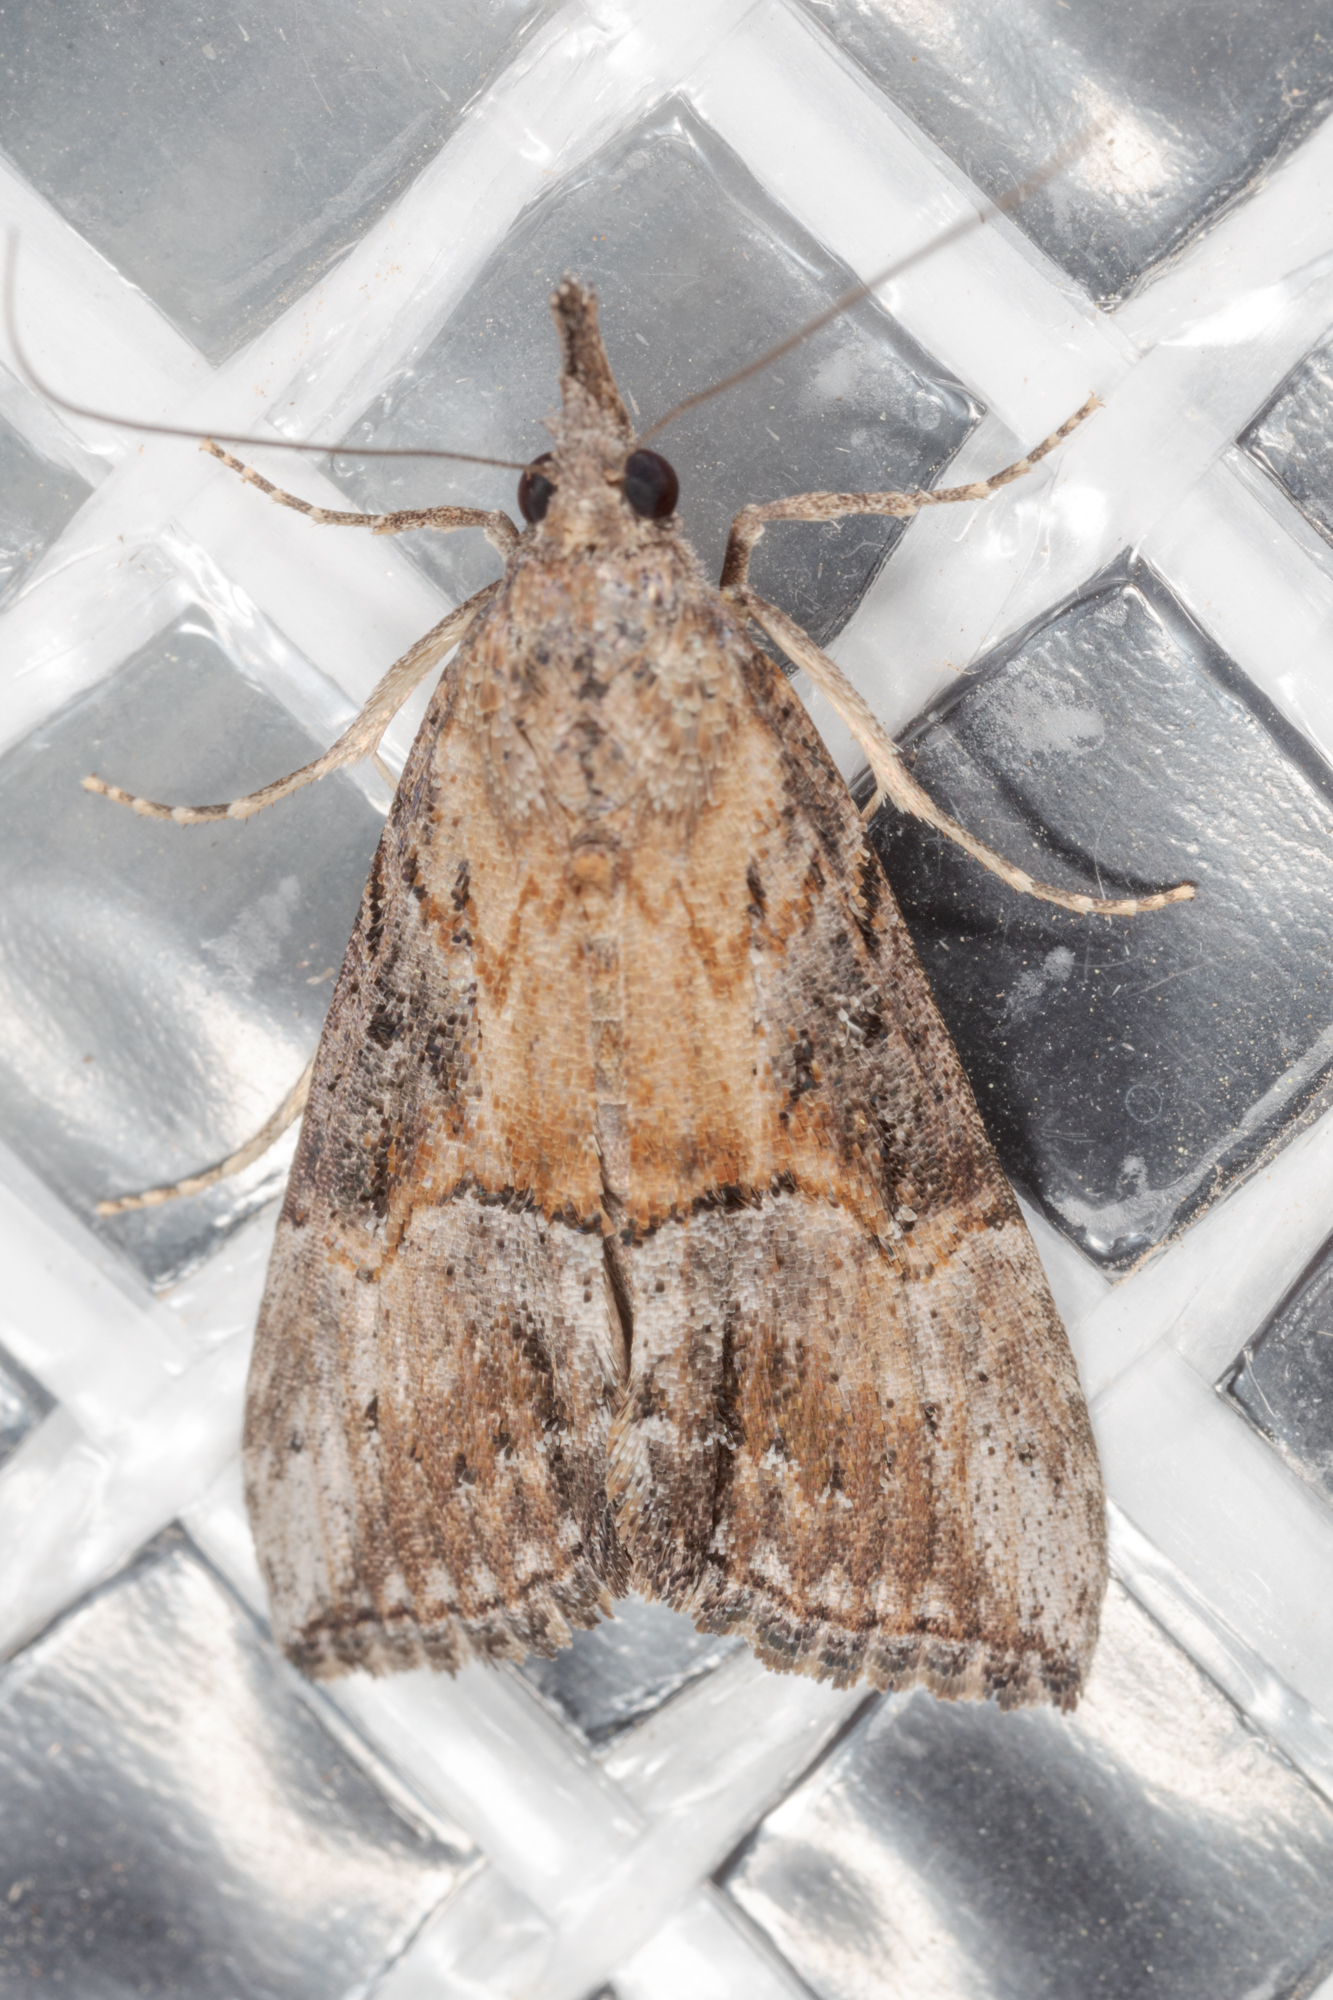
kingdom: Animalia
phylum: Arthropoda
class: Insecta
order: Lepidoptera
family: Erebidae
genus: Hypena
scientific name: Hypena scabra
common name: Green cloverworm
